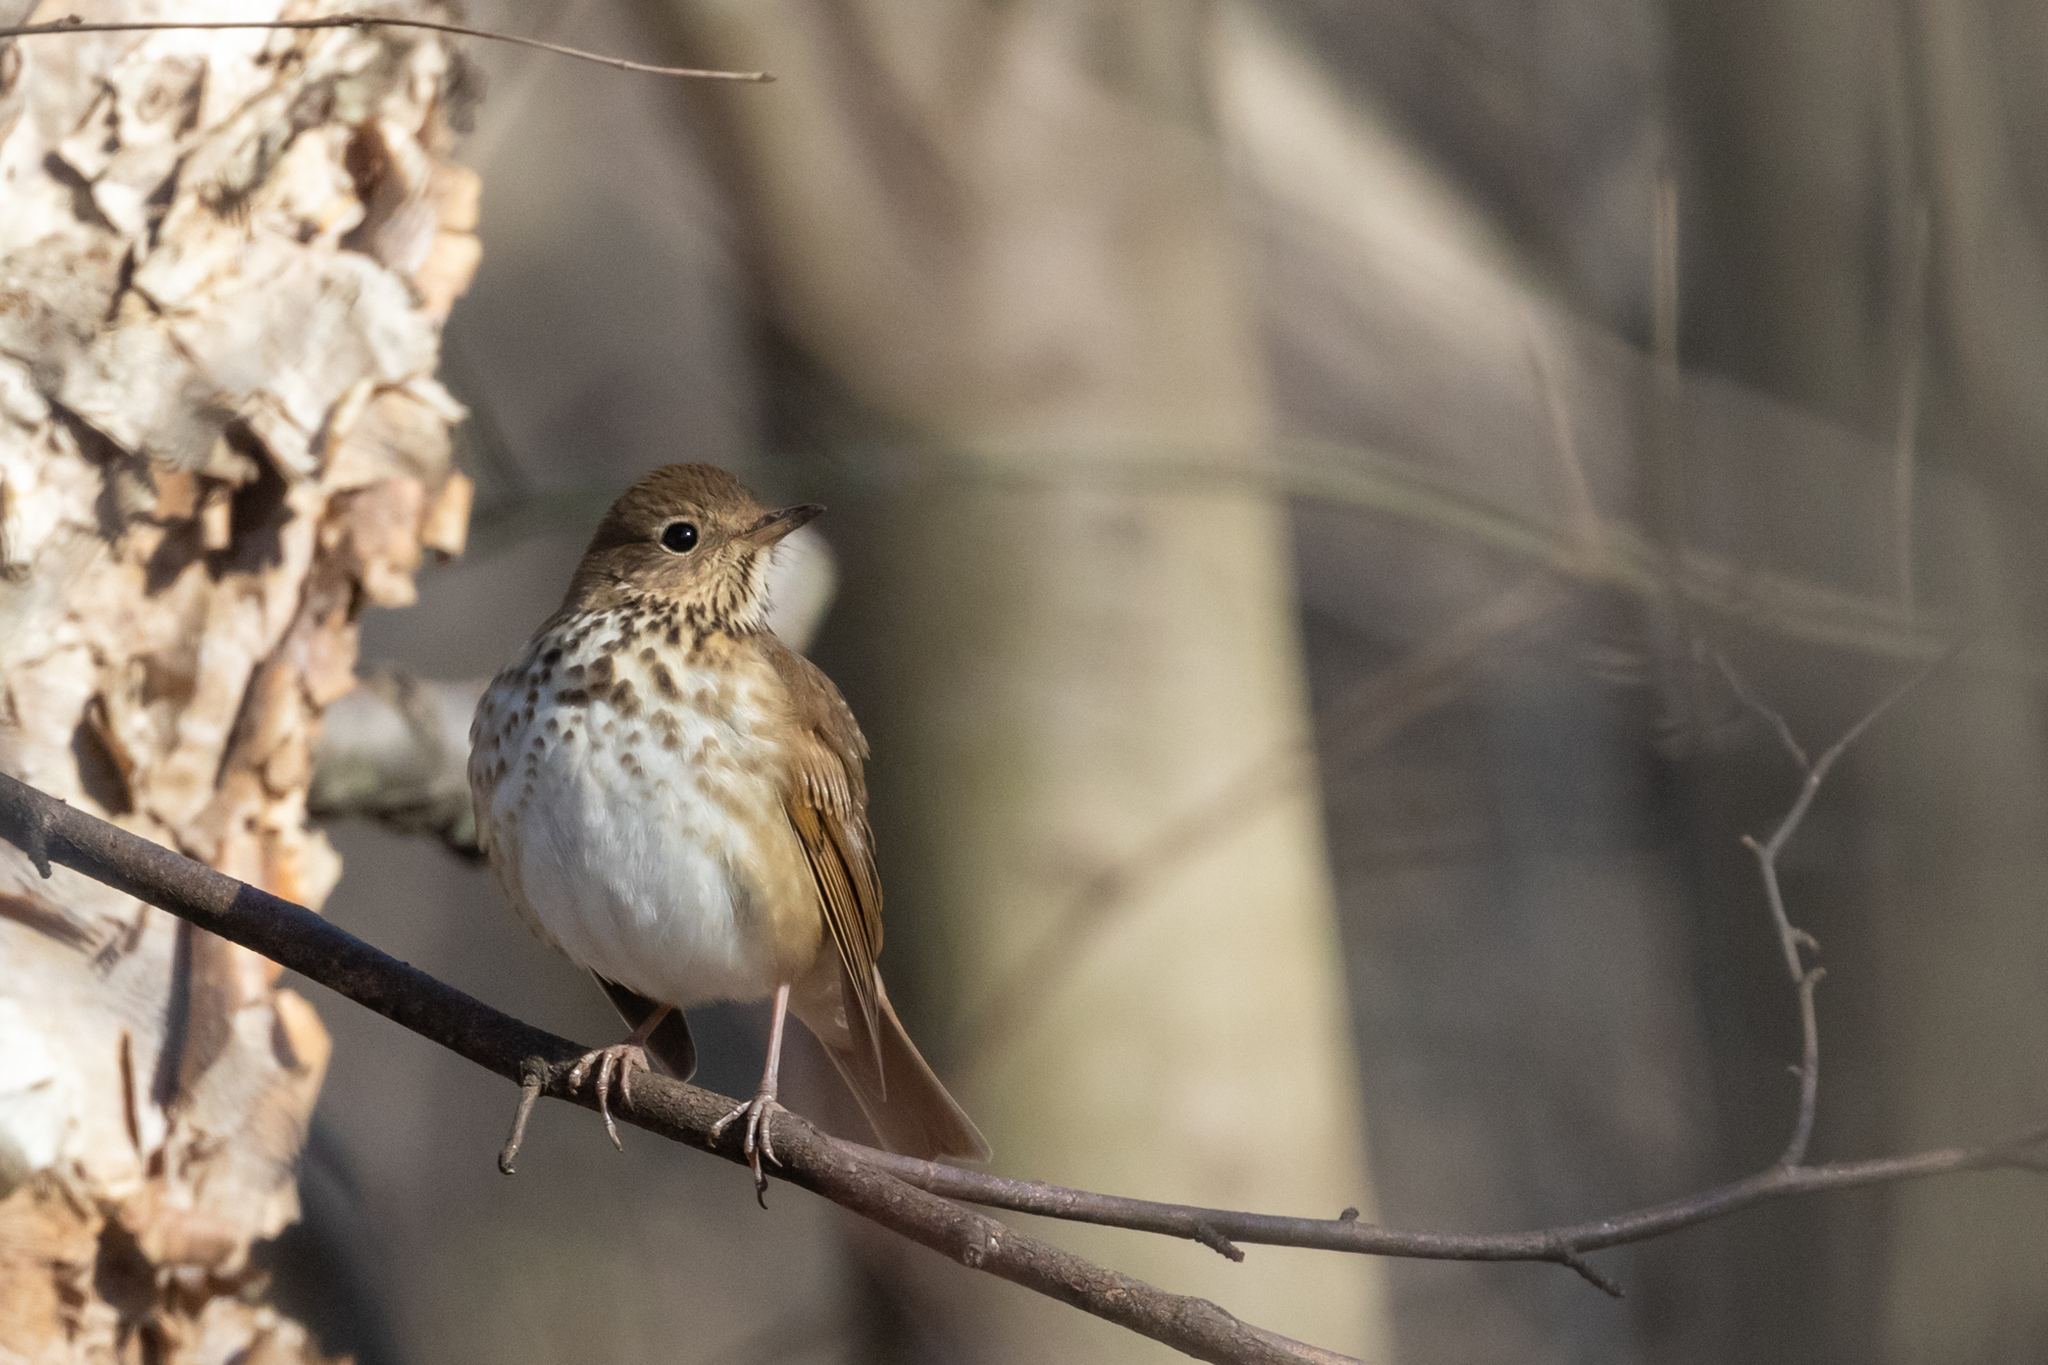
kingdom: Animalia
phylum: Chordata
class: Aves
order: Passeriformes
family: Turdidae
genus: Catharus
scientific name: Catharus guttatus
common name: Hermit thrush
